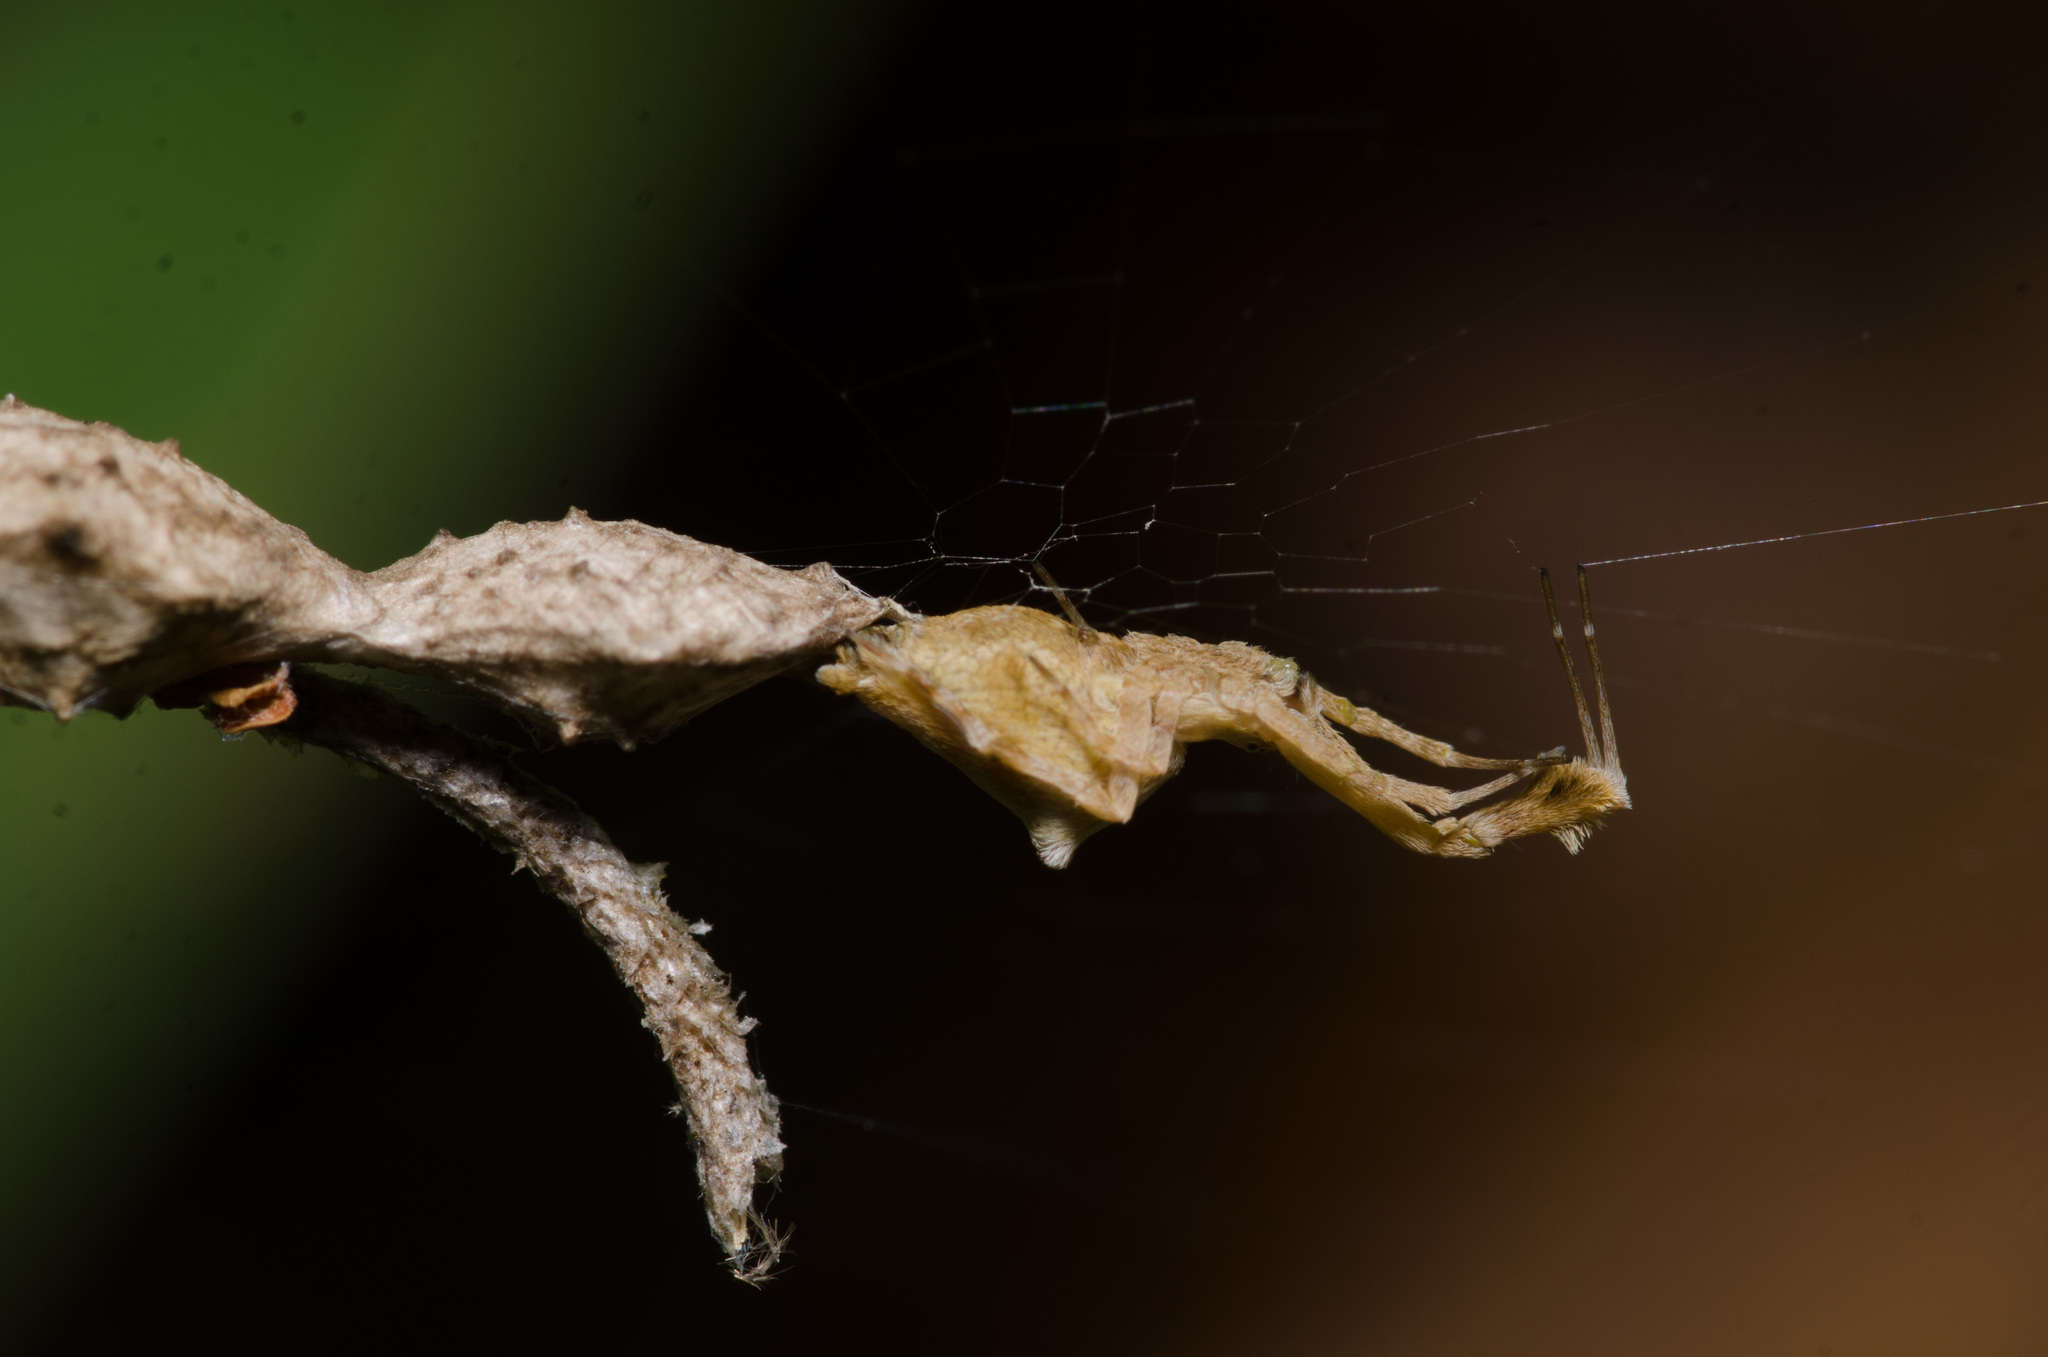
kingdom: Animalia
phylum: Arthropoda
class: Arachnida
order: Araneae
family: Uloboridae
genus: Uloborus
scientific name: Uloborus glomosus
